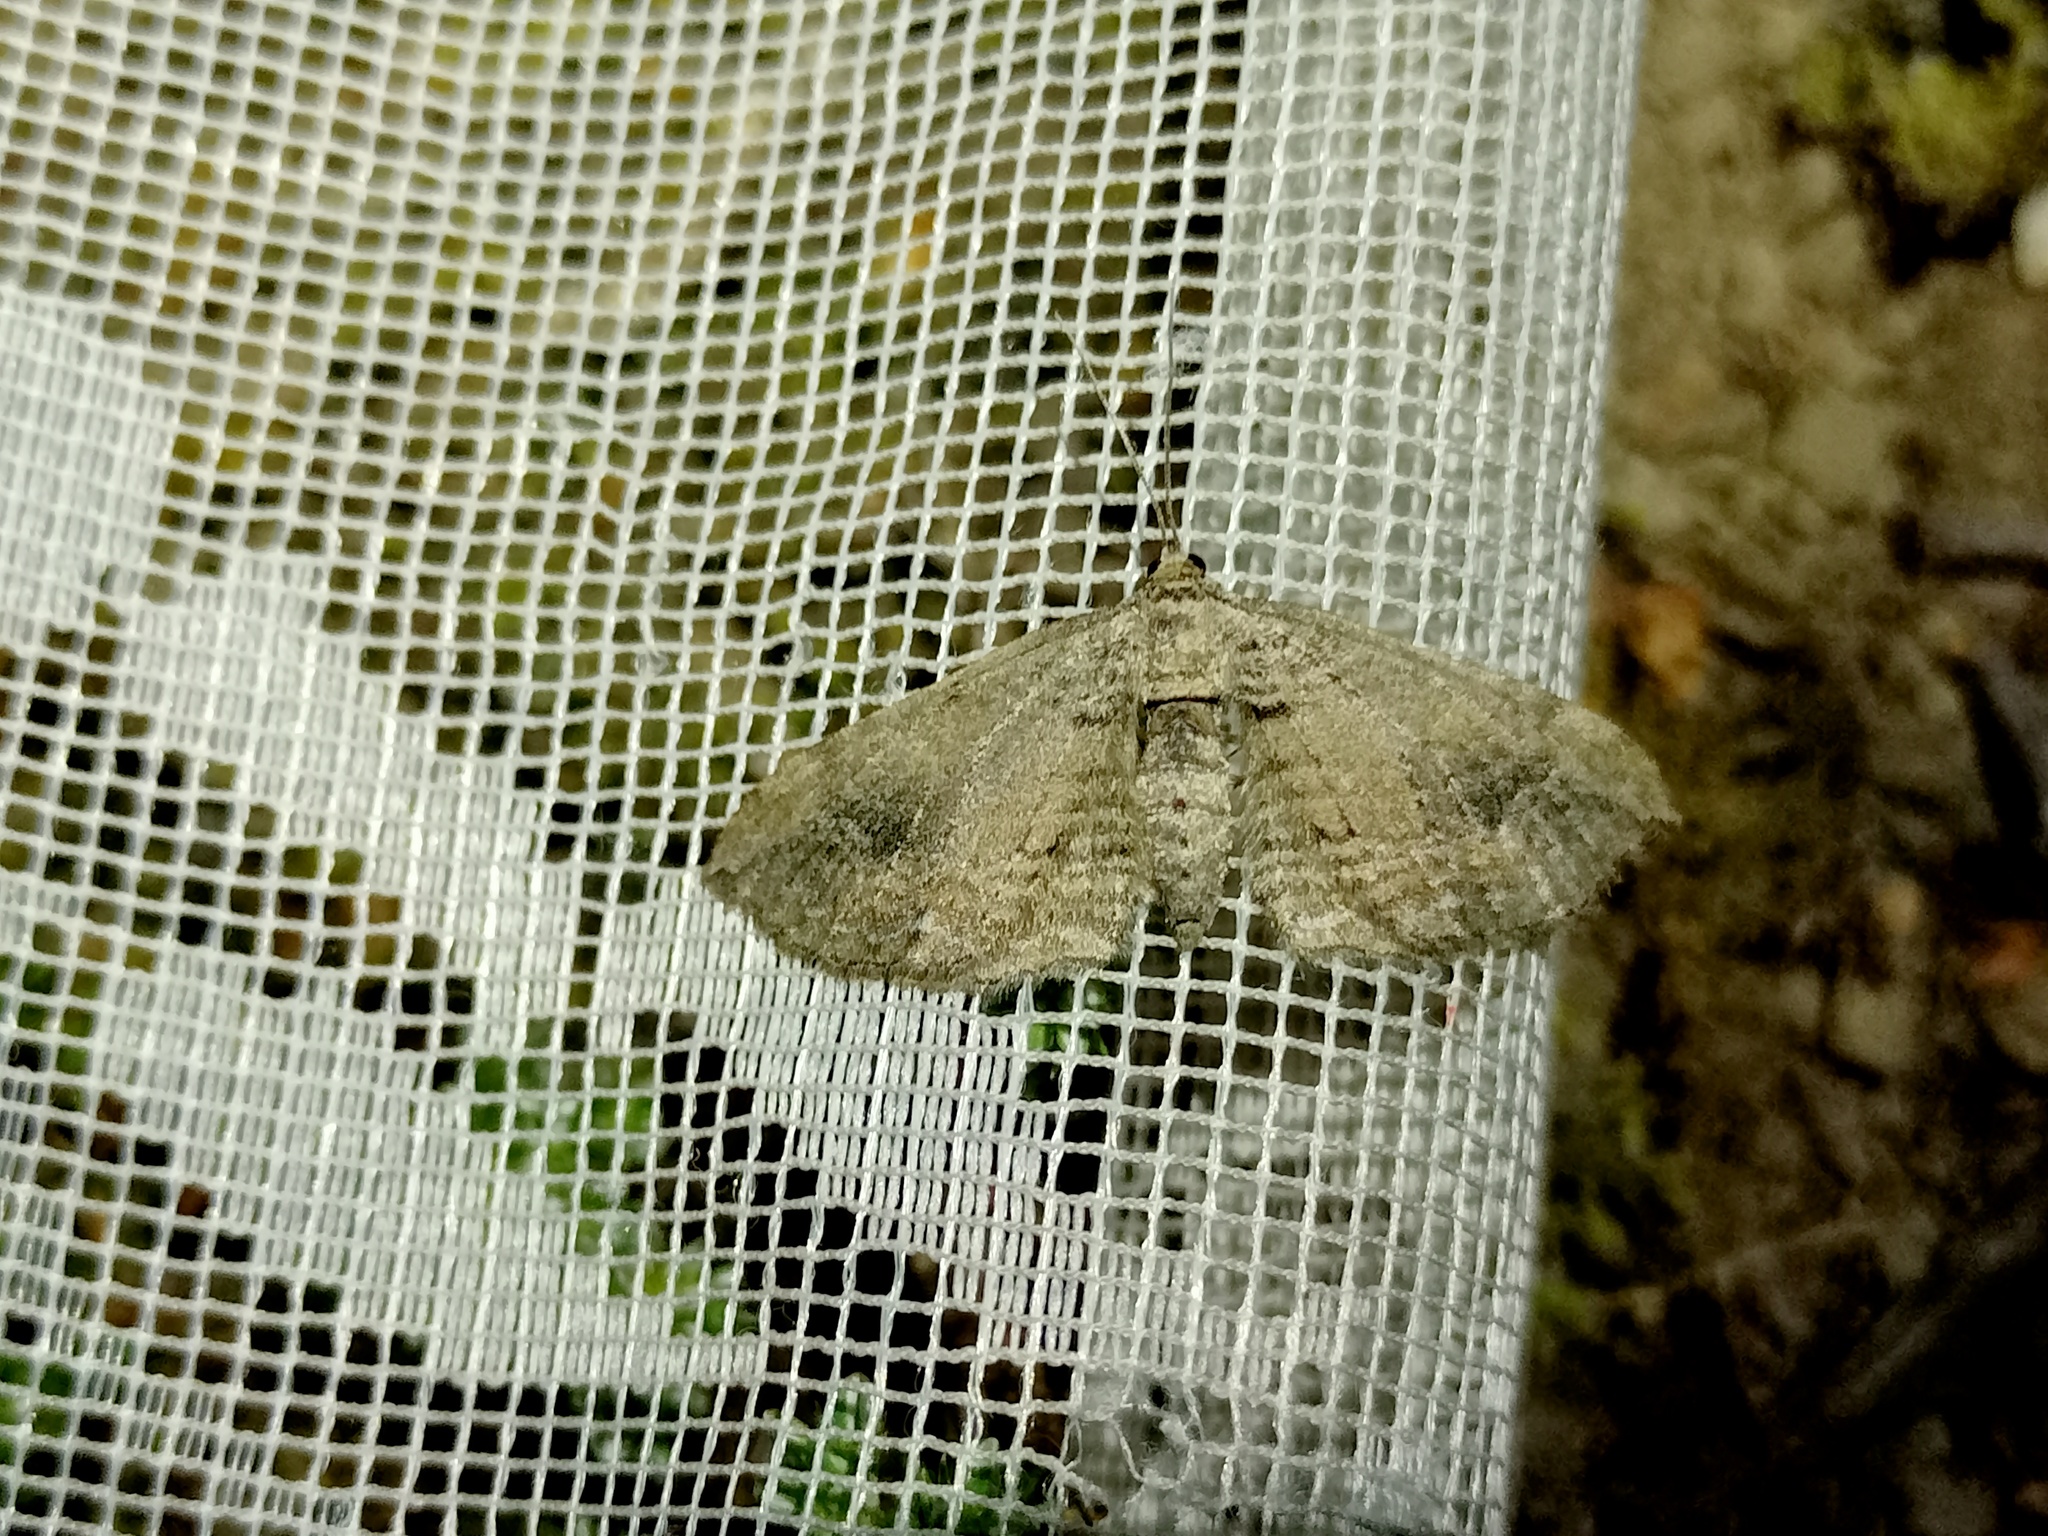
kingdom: Animalia
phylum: Arthropoda
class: Insecta
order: Lepidoptera
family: Geometridae
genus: Horisme
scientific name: Horisme tersata
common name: Fern
